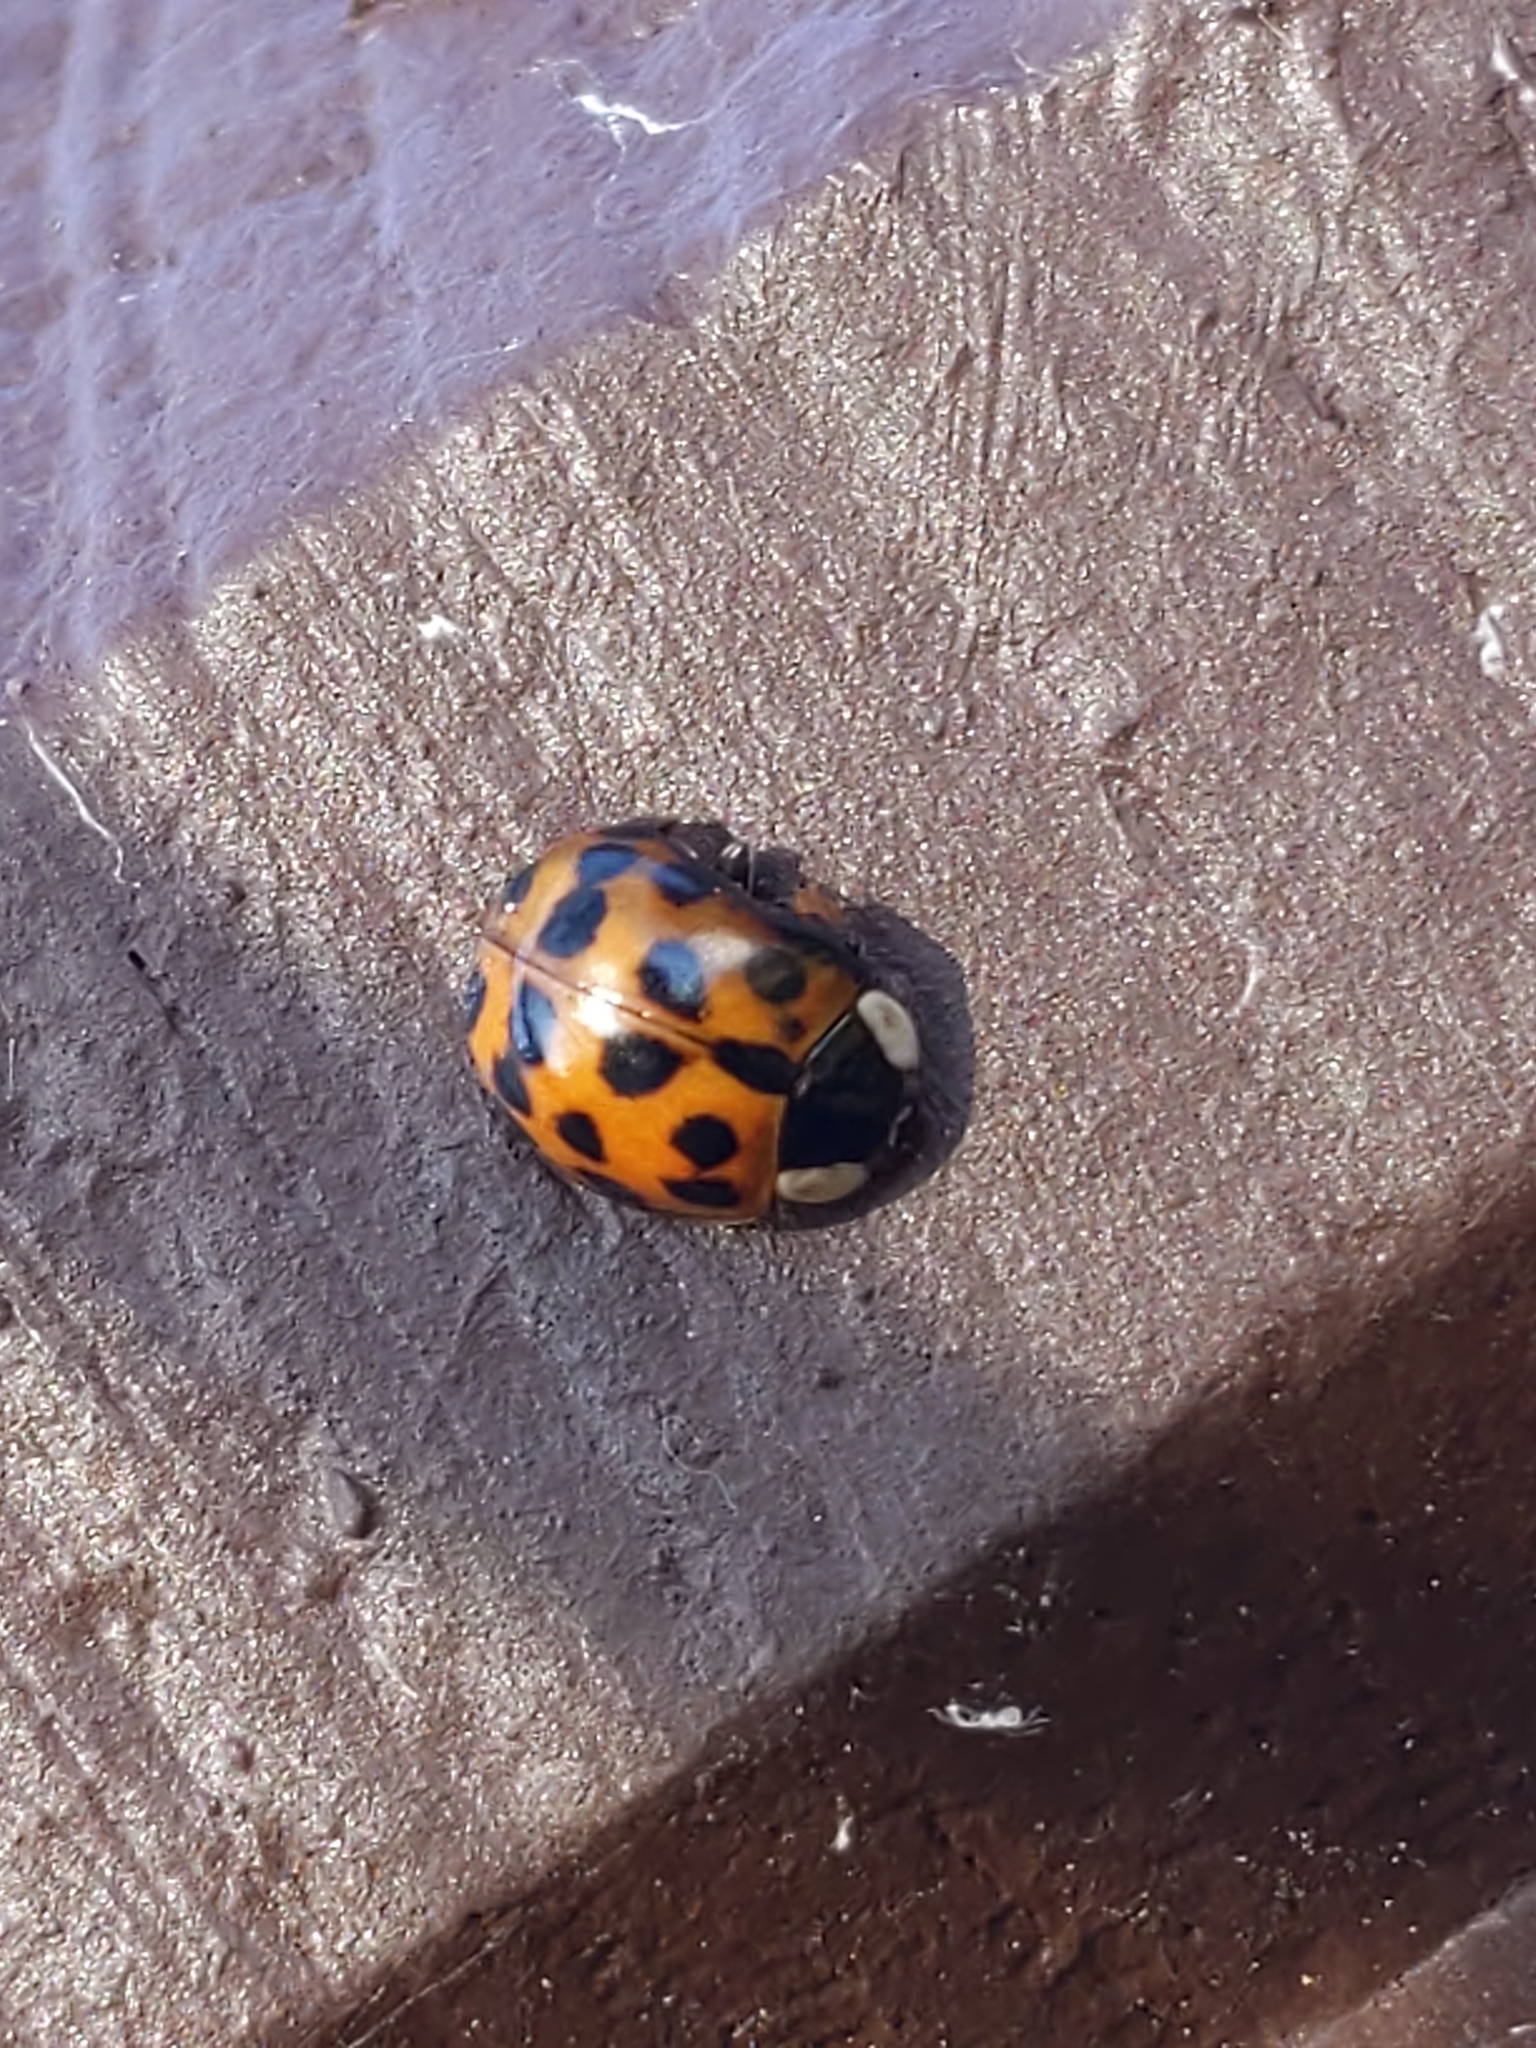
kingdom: Animalia
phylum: Arthropoda
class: Insecta
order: Coleoptera
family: Coccinellidae
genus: Harmonia
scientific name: Harmonia axyridis
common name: Harlequin ladybird
